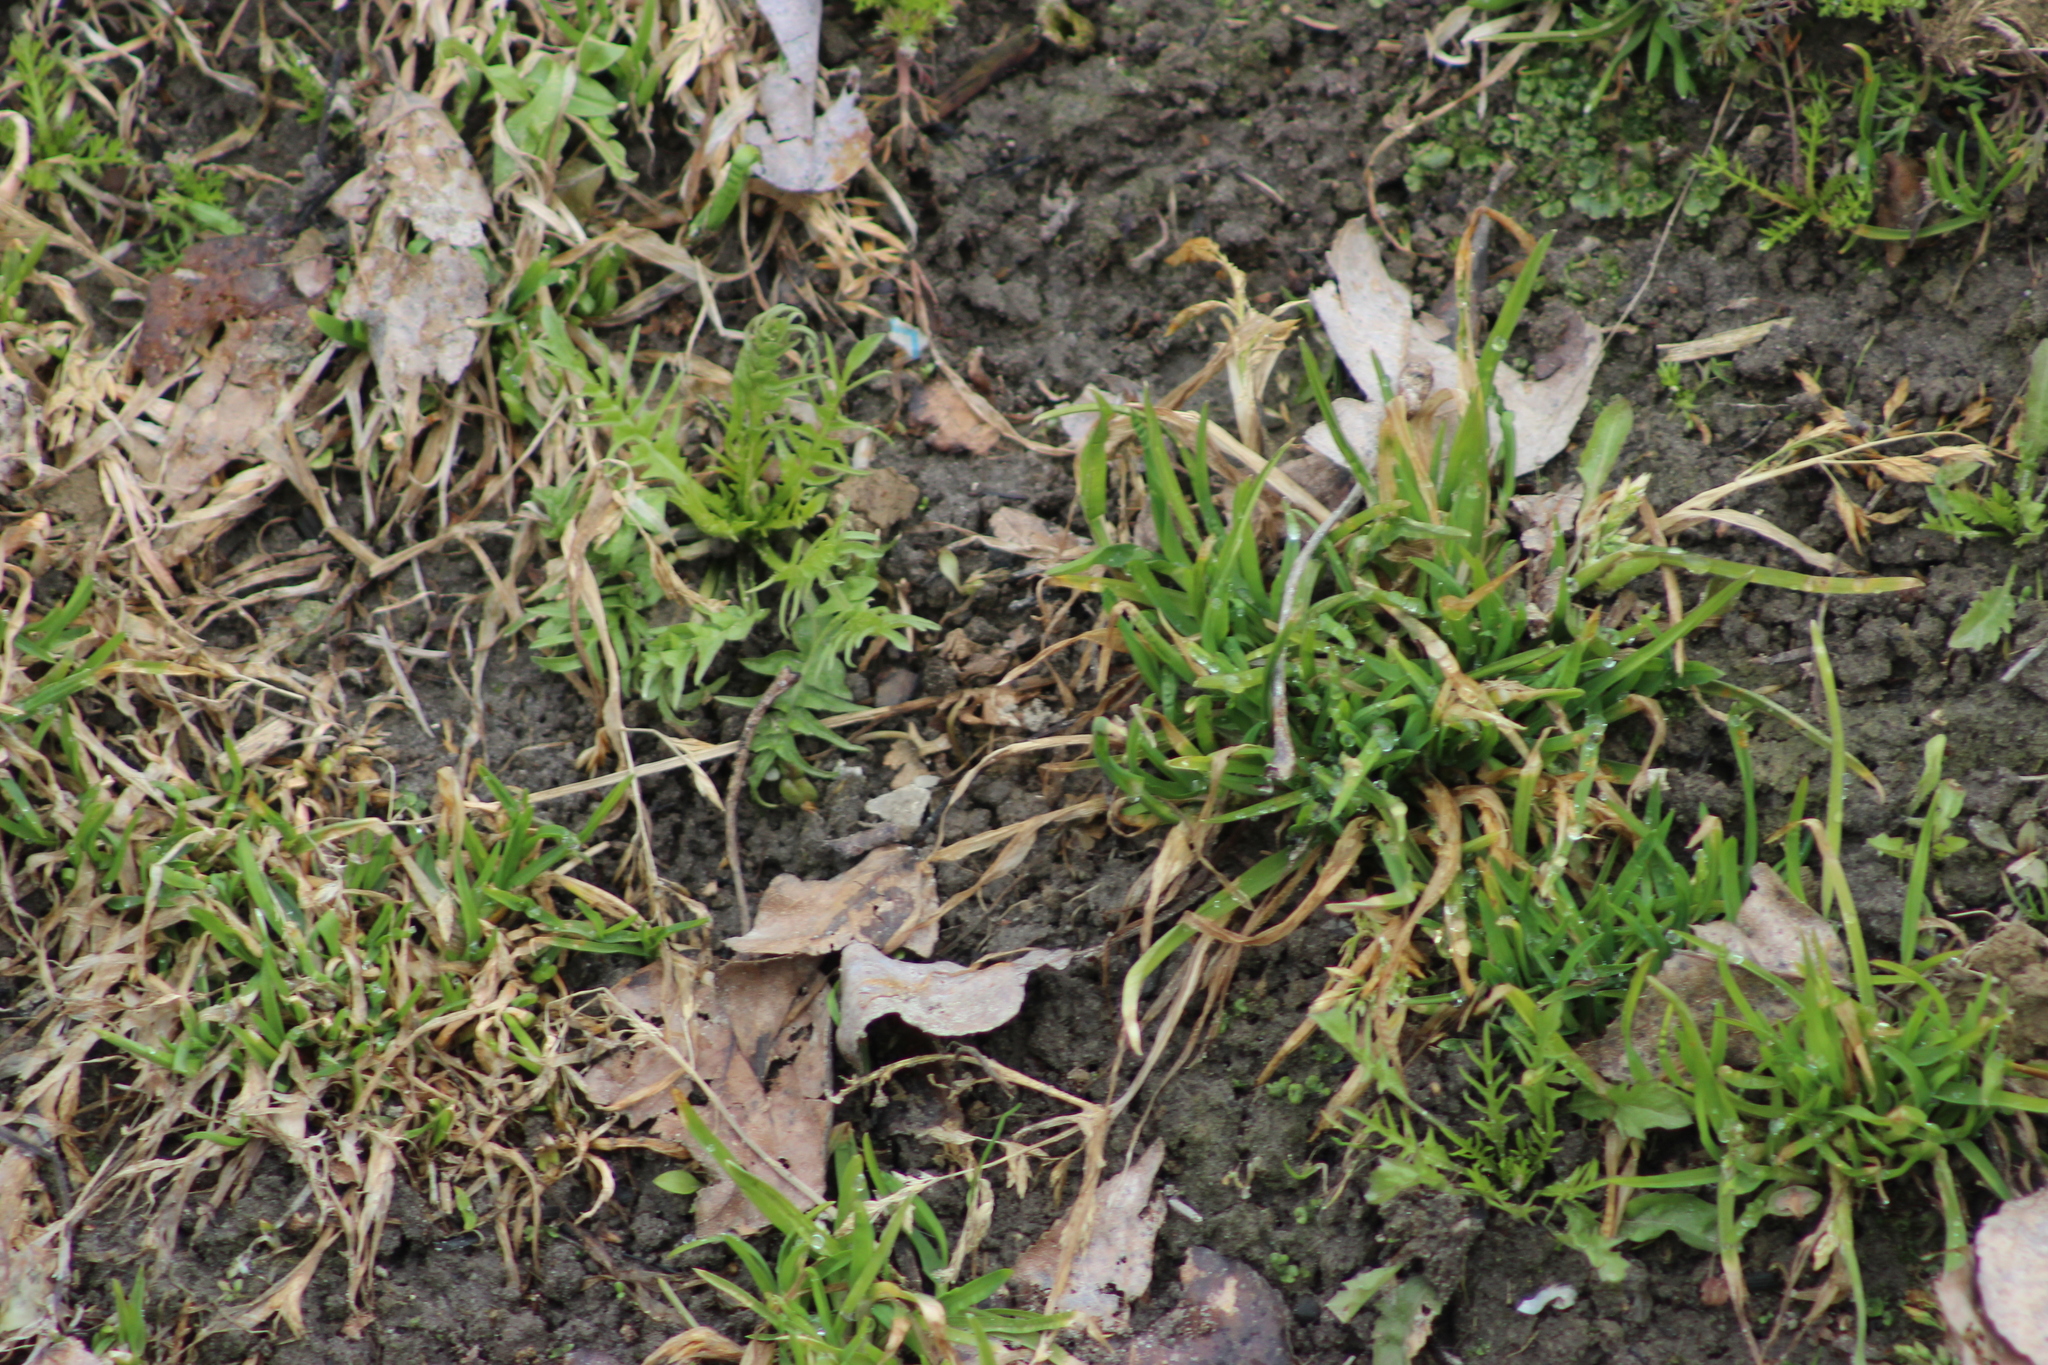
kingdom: Plantae
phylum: Tracheophyta
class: Liliopsida
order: Poales
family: Poaceae
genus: Poa
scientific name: Poa annua
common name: Annual bluegrass
